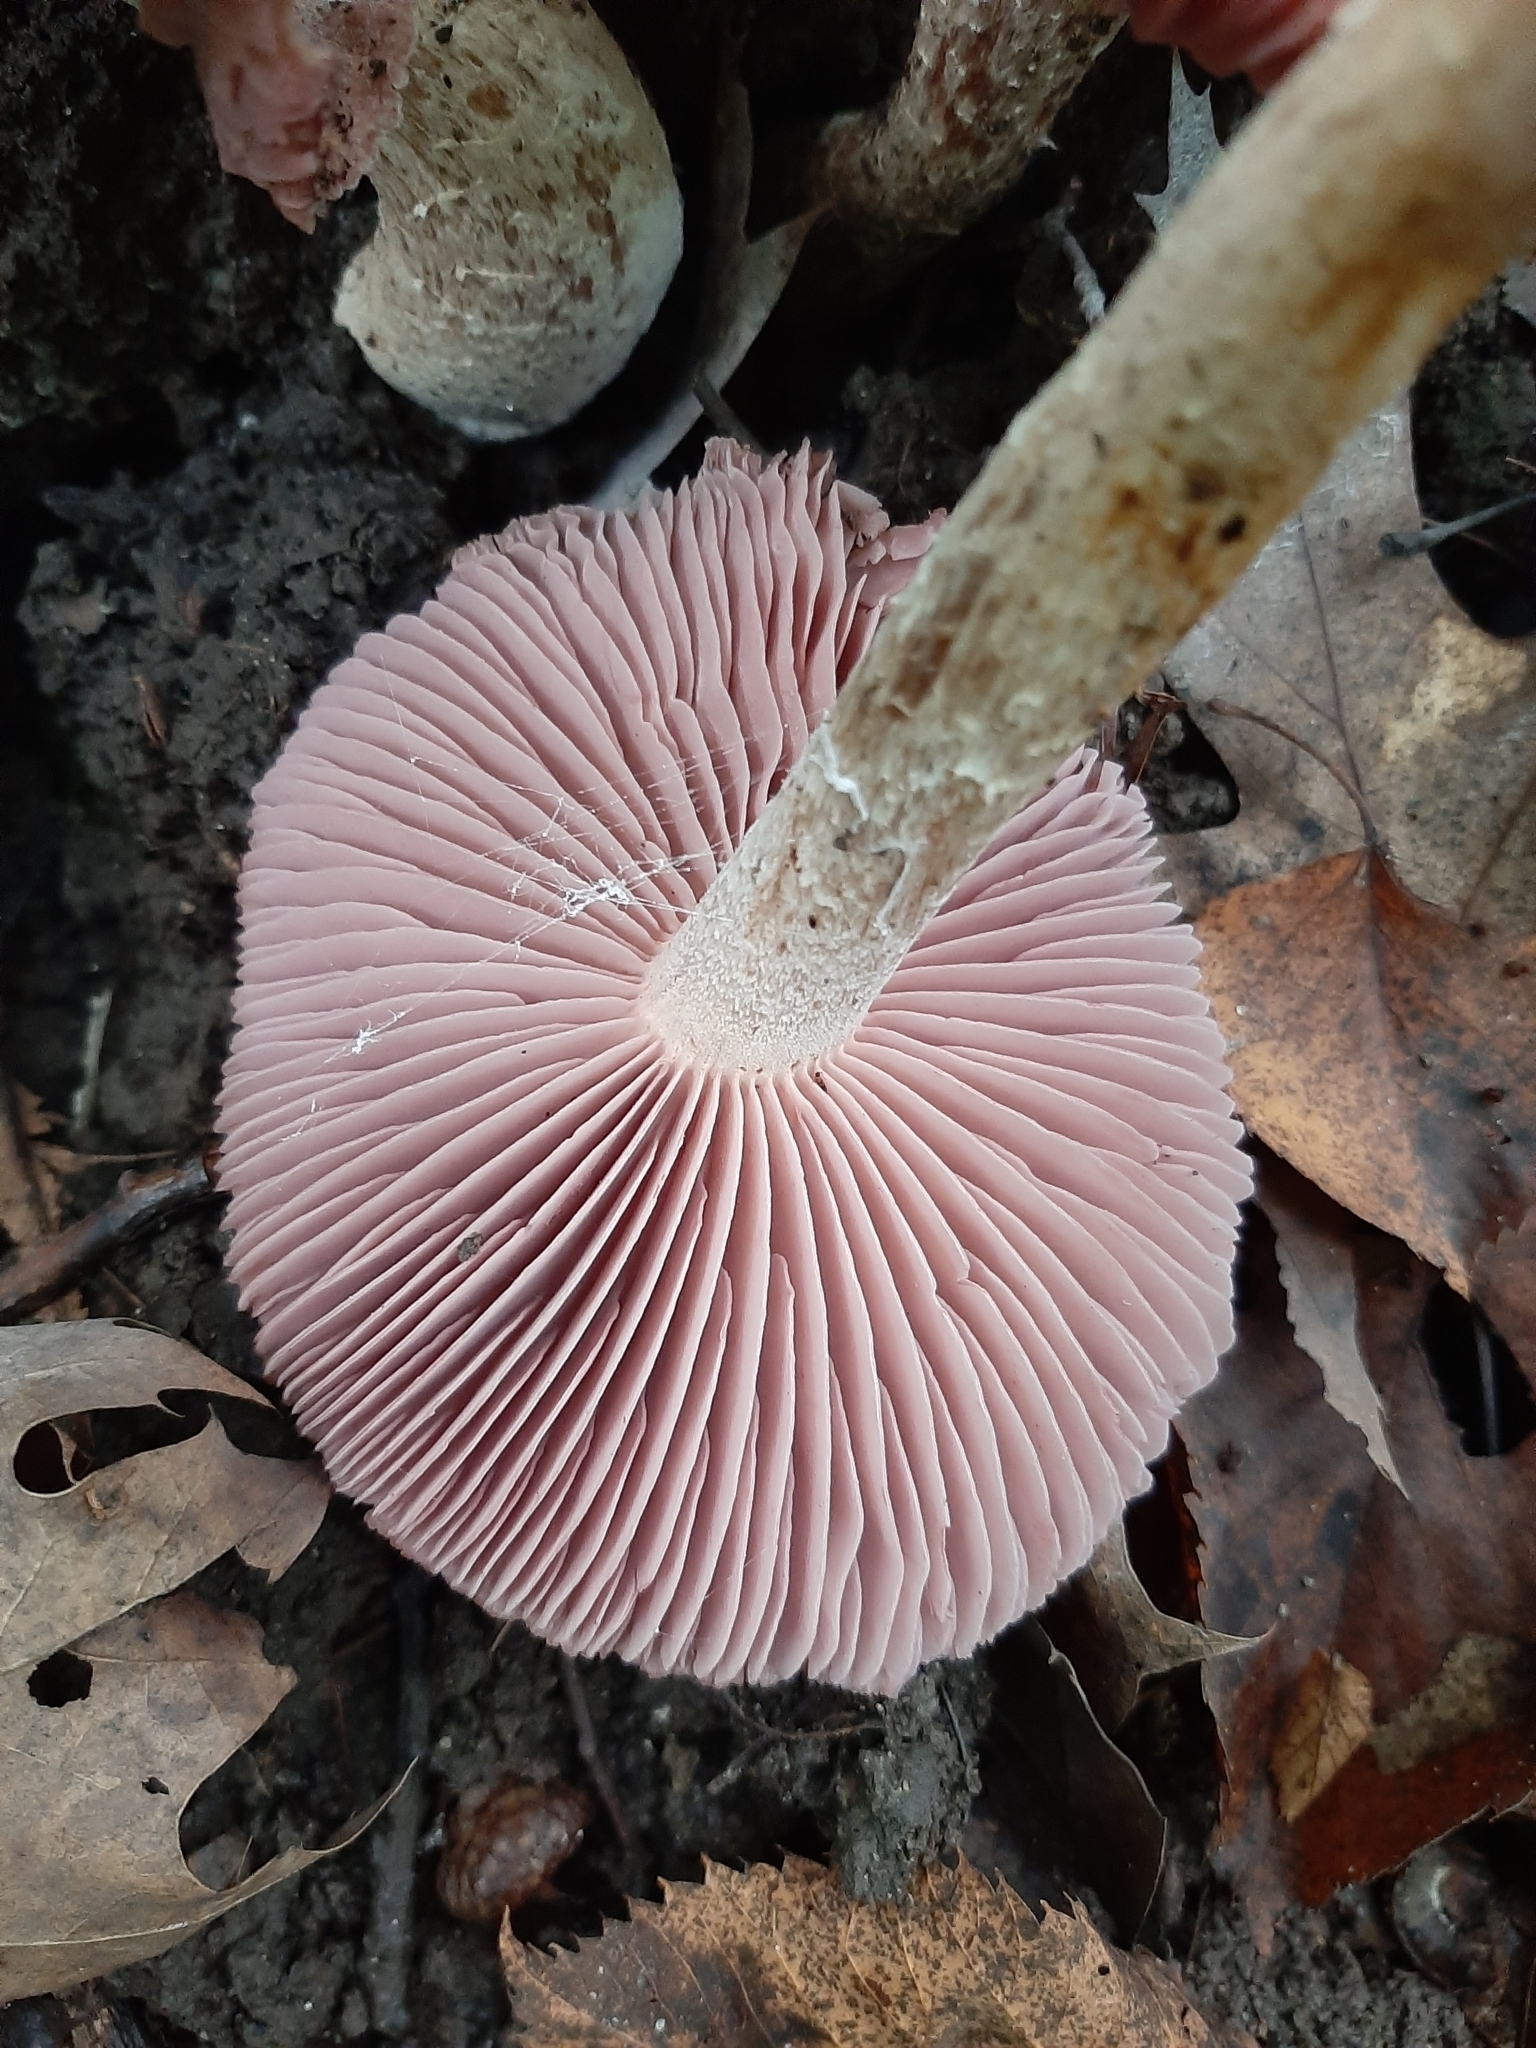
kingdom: Fungi
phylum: Basidiomycota
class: Agaricomycetes
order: Agaricales
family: Hydnangiaceae
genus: Laccaria
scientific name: Laccaria ochropurpurea
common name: Purple laccaria
